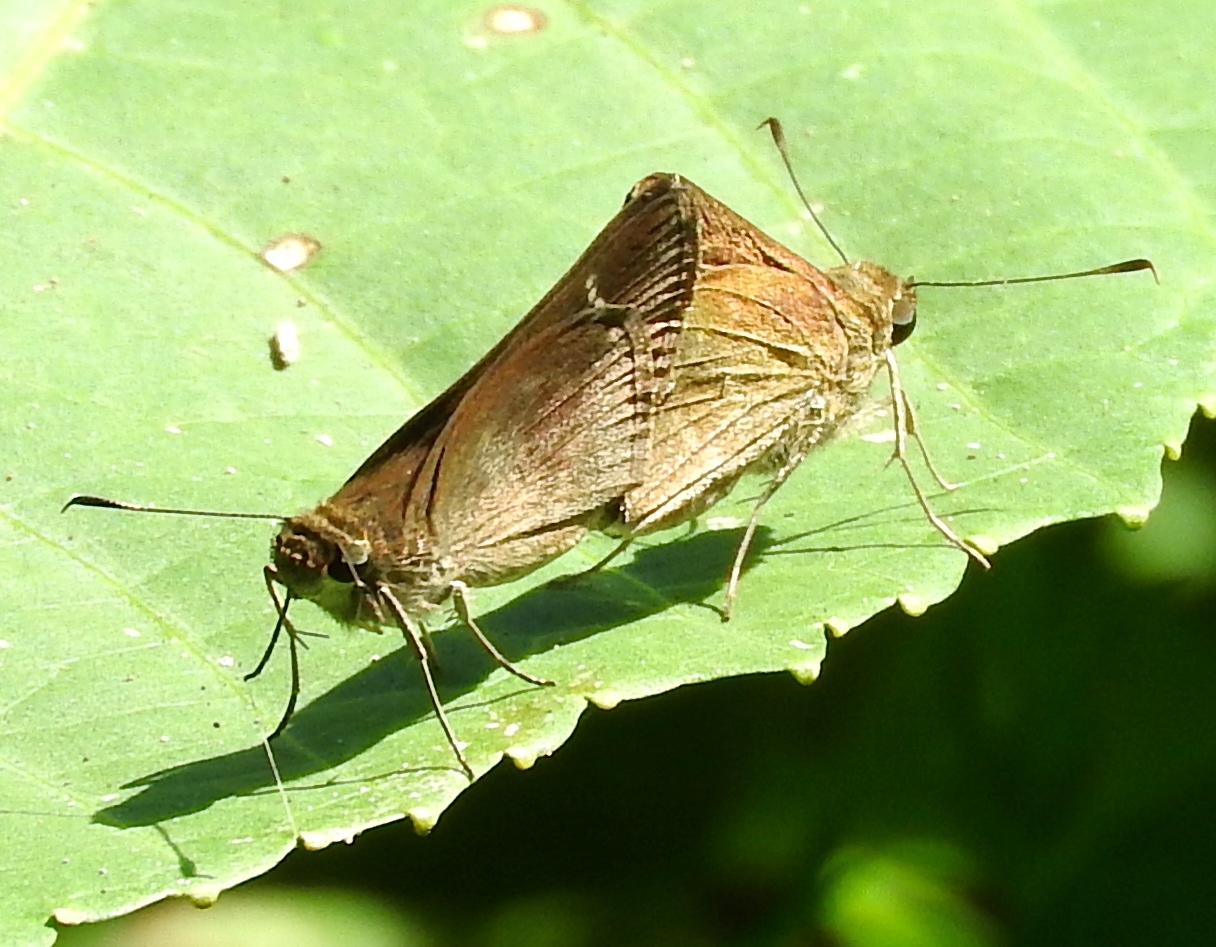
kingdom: Animalia
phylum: Arthropoda
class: Insecta
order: Lepidoptera
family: Hesperiidae
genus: Lerema
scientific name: Lerema ancillaris
